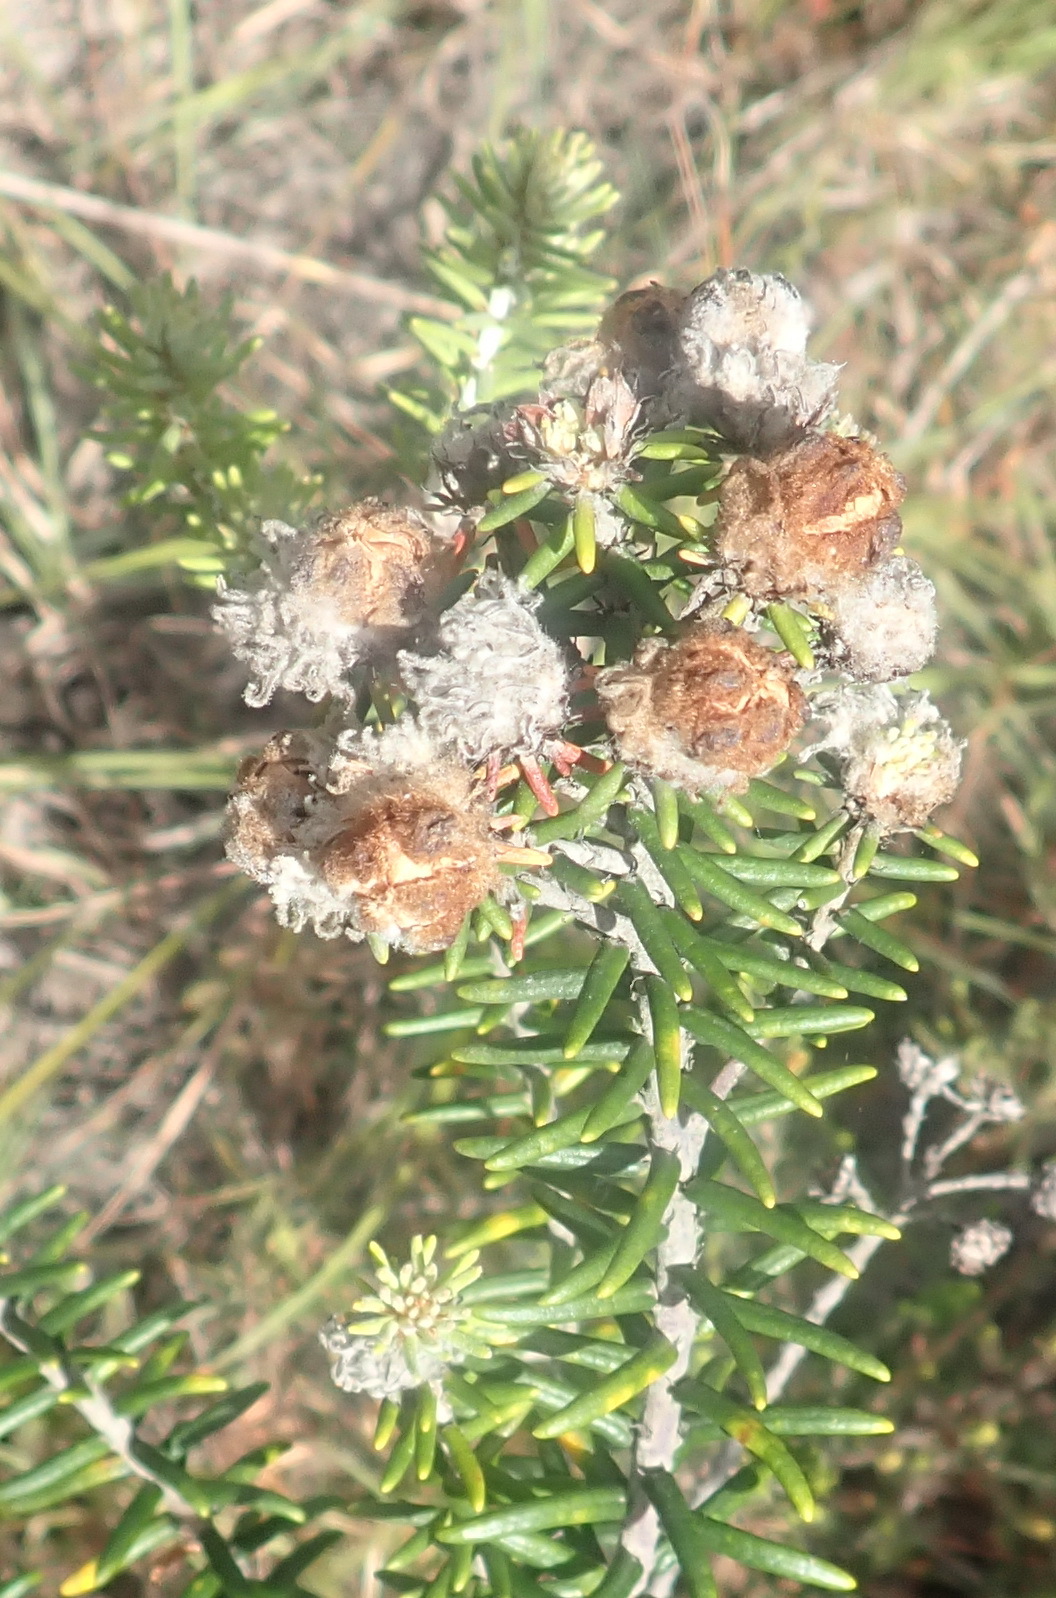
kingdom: Plantae
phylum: Tracheophyta
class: Magnoliopsida
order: Rosales
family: Rhamnaceae
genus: Trichocephalus
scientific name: Trichocephalus stipularis
